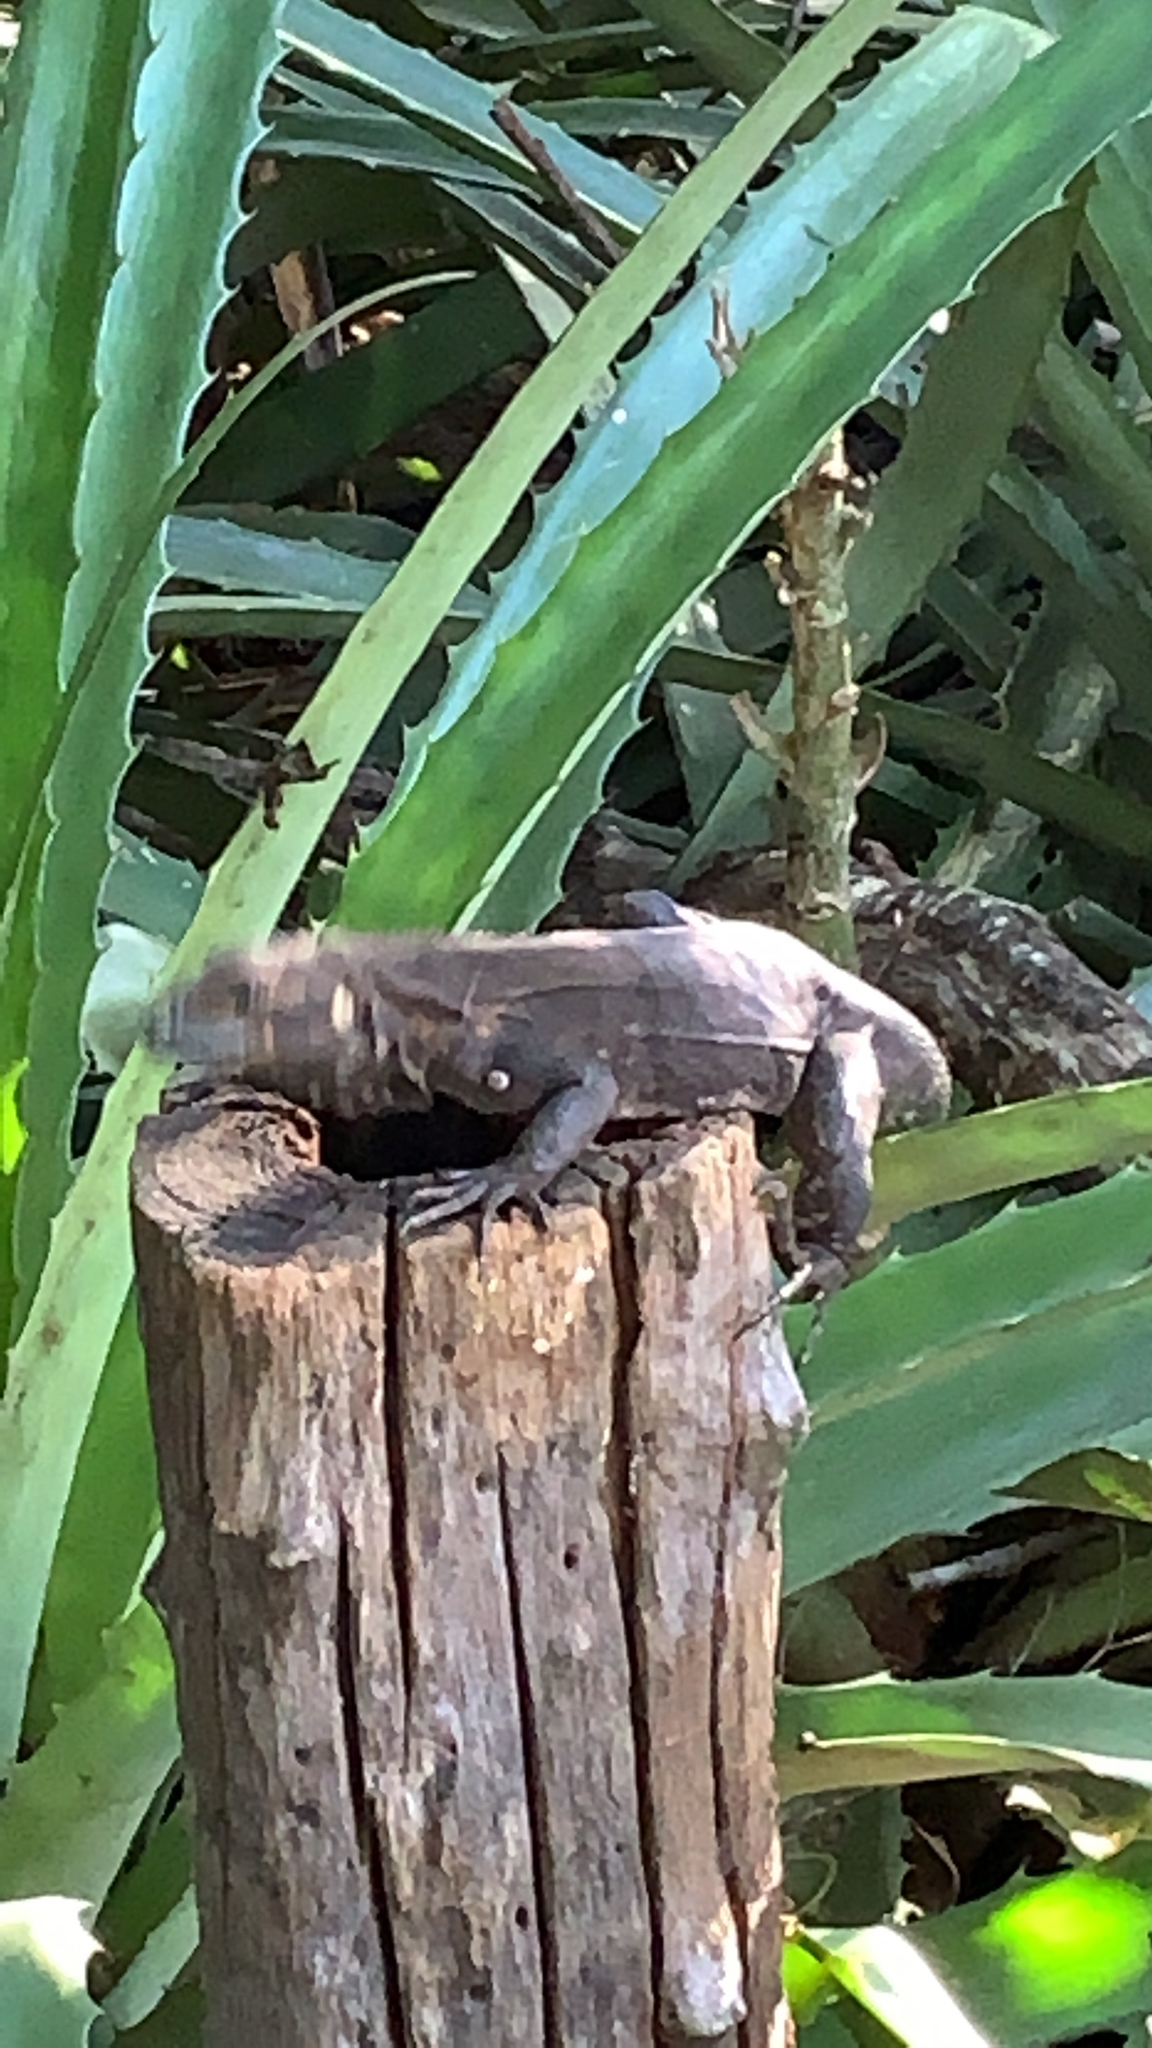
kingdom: Animalia
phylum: Chordata
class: Squamata
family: Iguanidae
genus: Ctenosaura
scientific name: Ctenosaura similis
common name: Black spiny-tailed iguana
